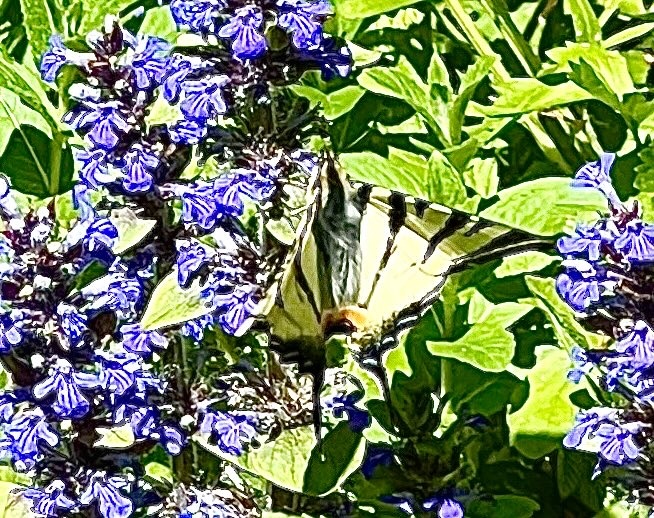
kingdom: Animalia
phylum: Arthropoda
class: Insecta
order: Lepidoptera
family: Papilionidae
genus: Iphiclides
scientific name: Iphiclides podalirius
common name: Scarce swallowtail
